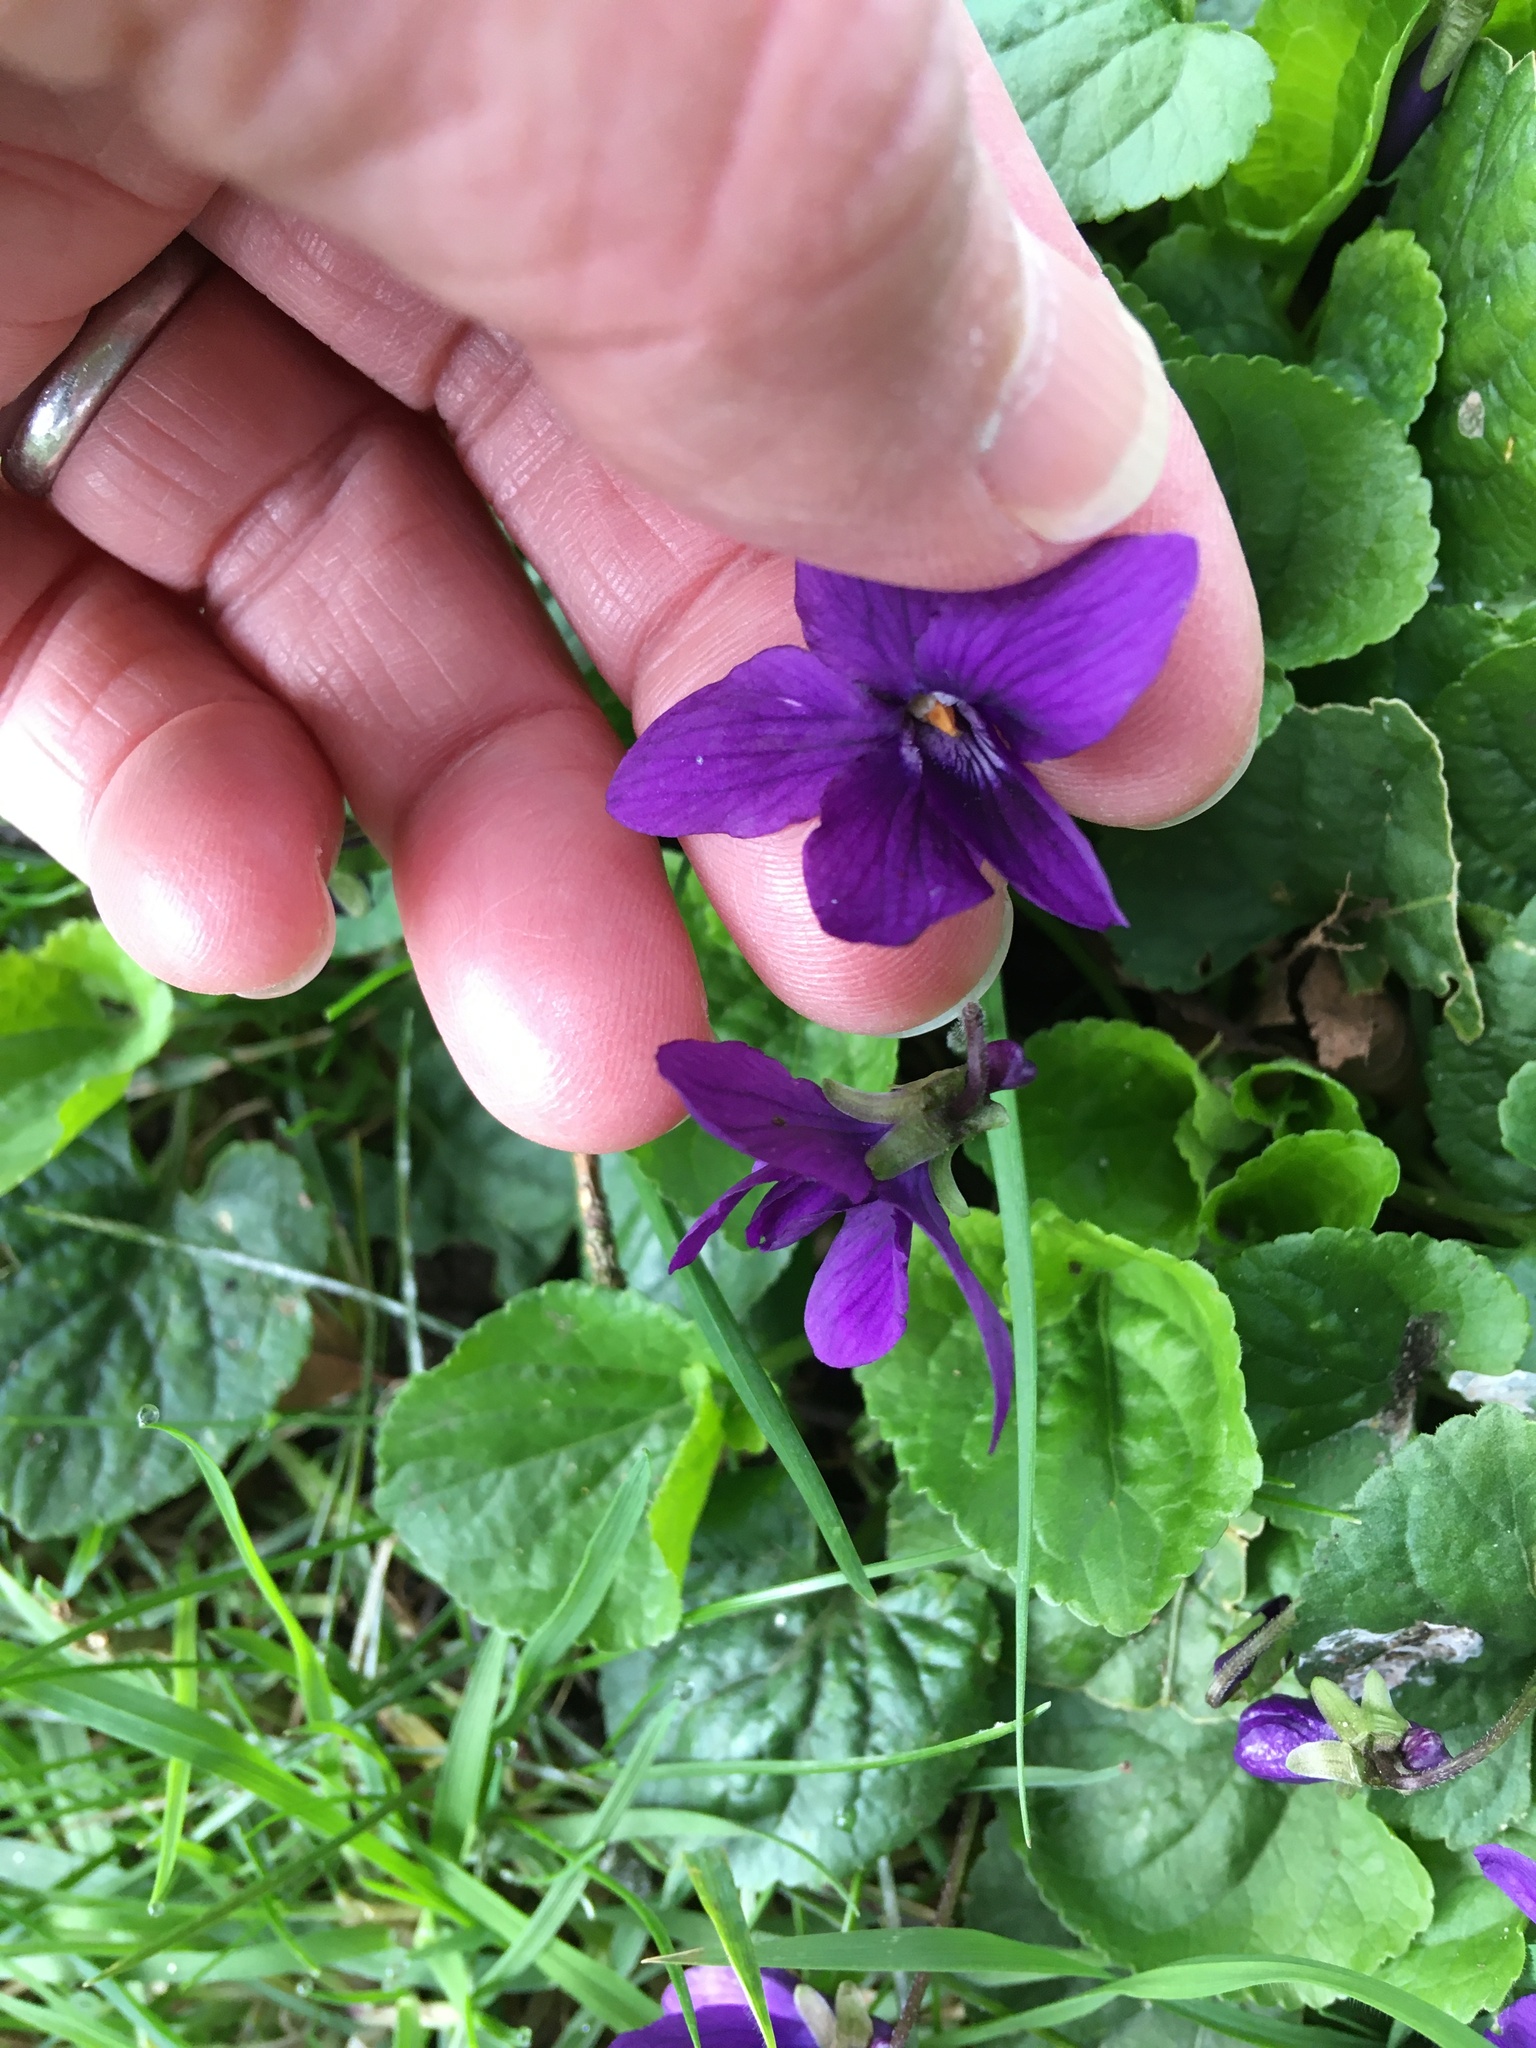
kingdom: Plantae
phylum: Tracheophyta
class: Magnoliopsida
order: Malpighiales
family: Violaceae
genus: Viola
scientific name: Viola odorata
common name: Sweet violet
